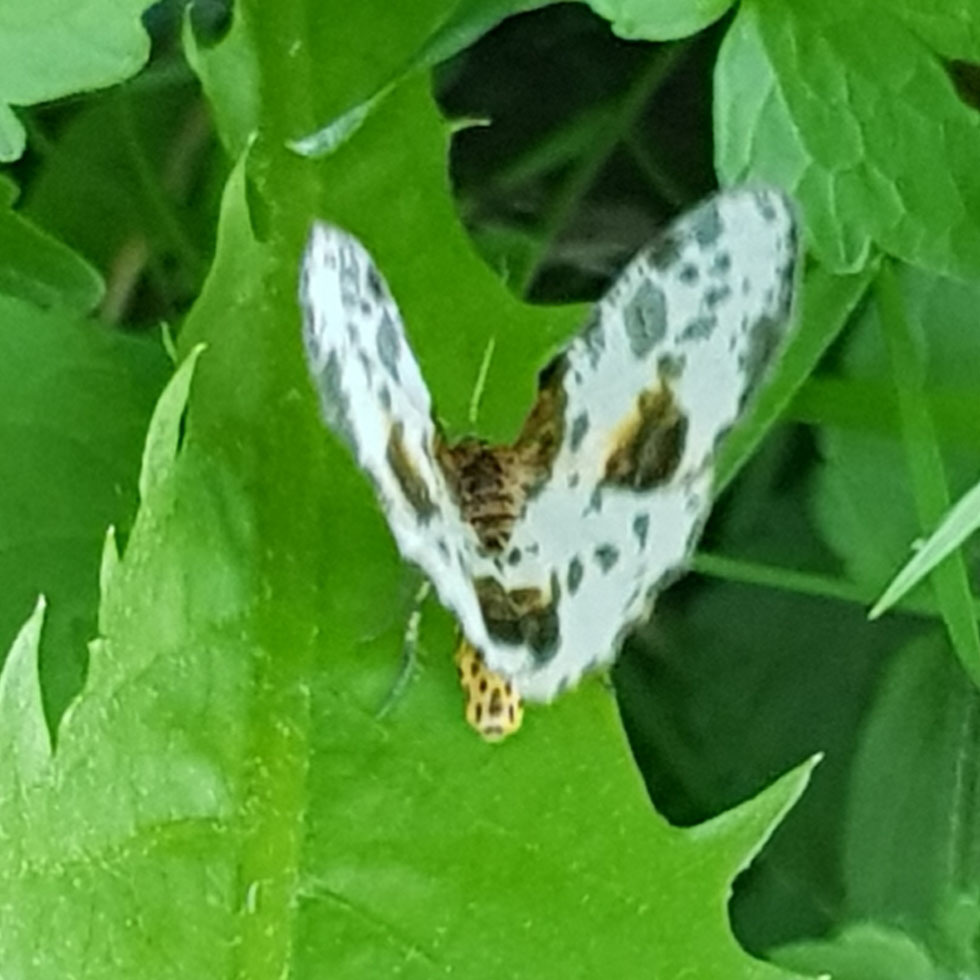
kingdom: Animalia
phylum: Arthropoda
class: Insecta
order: Lepidoptera
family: Geometridae
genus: Abraxas
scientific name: Abraxas sylvata
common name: Clouded magpie
